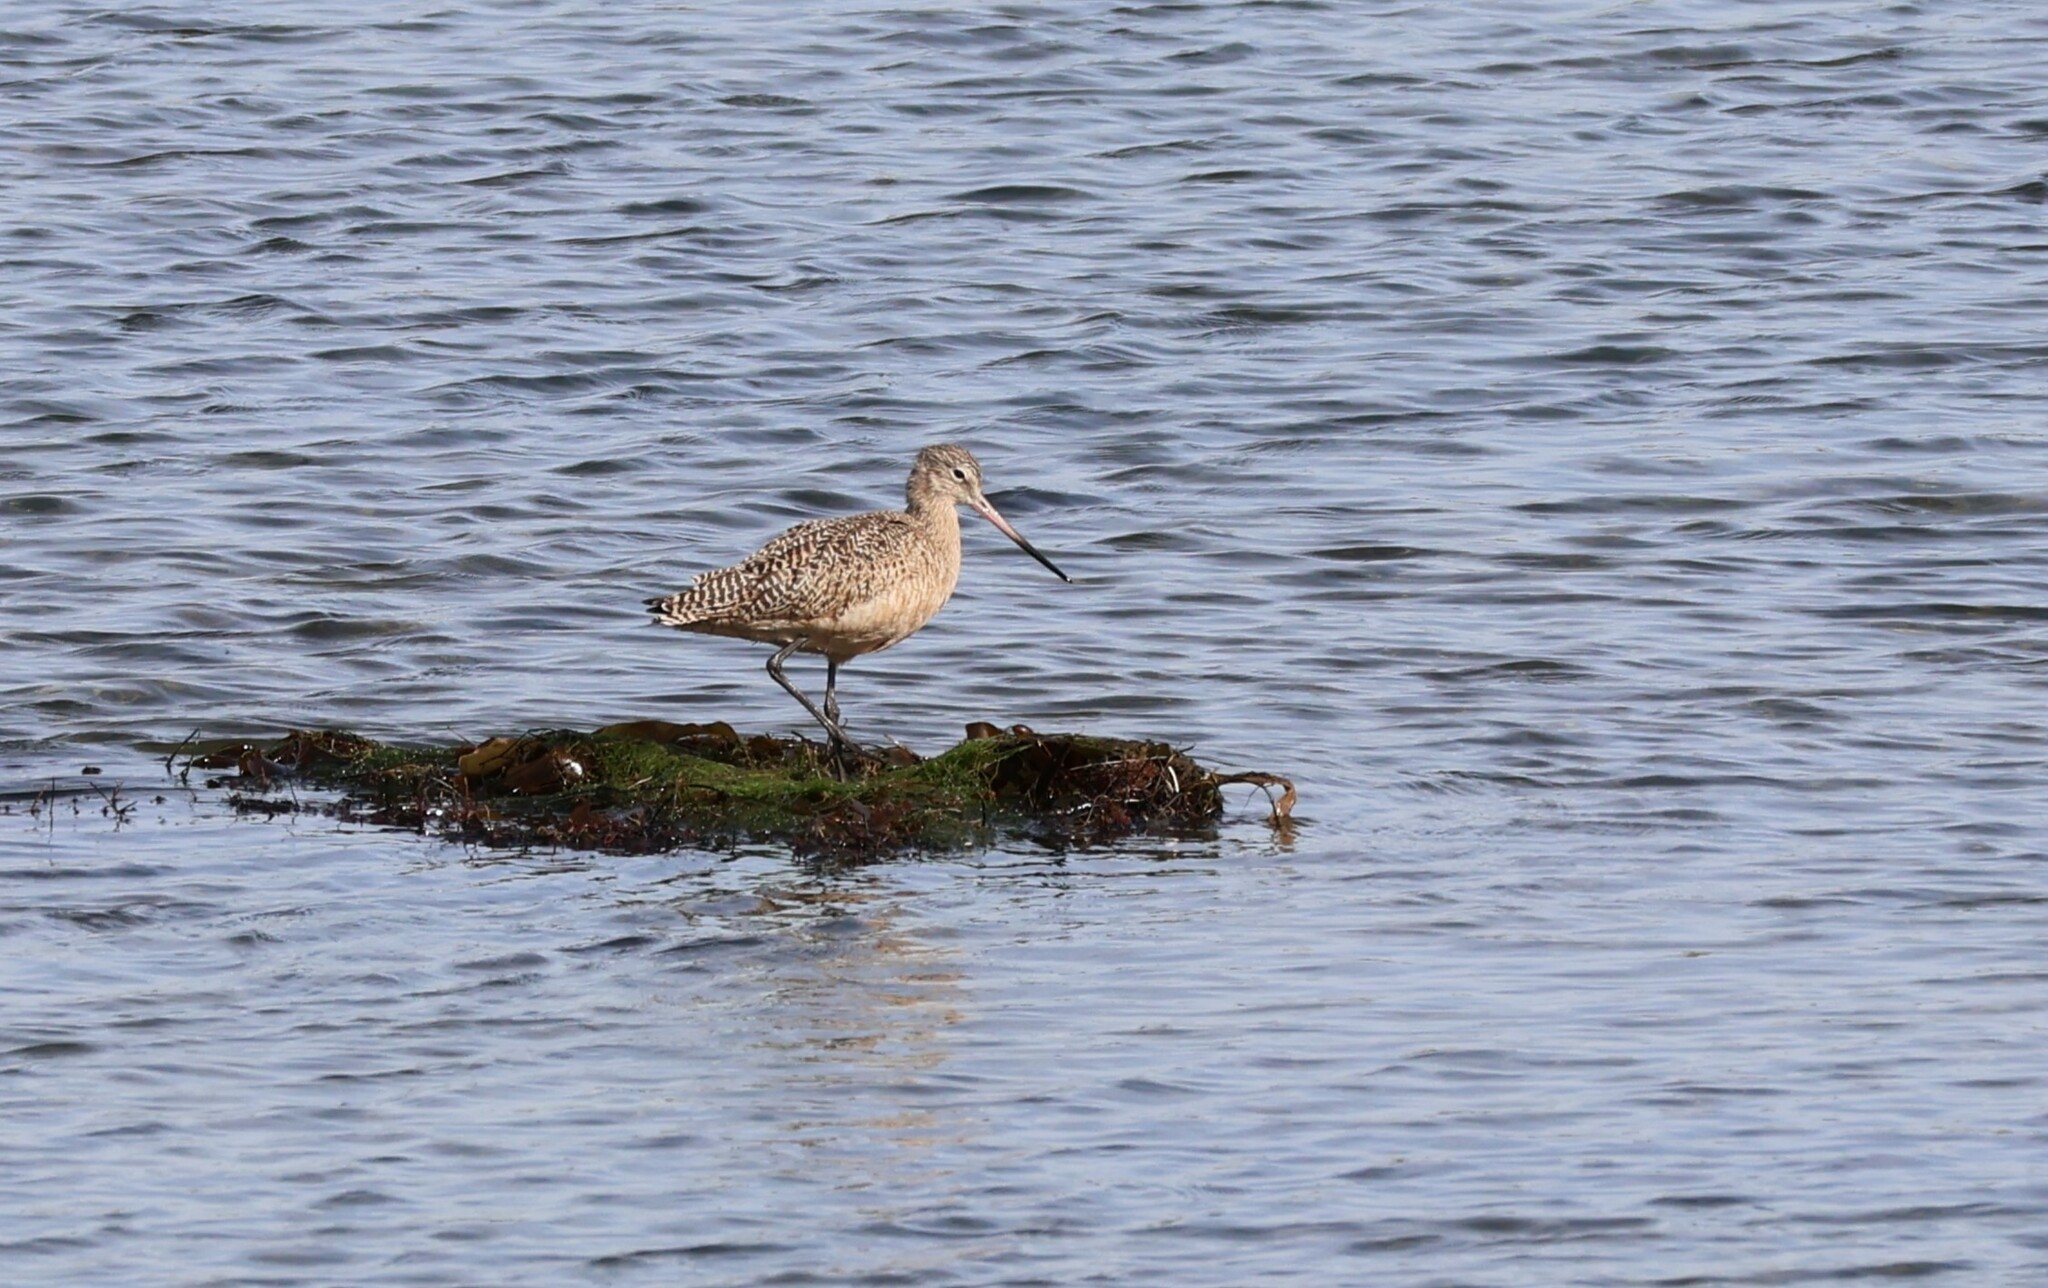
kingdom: Animalia
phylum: Chordata
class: Aves
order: Charadriiformes
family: Scolopacidae
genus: Limosa
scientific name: Limosa fedoa
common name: Marbled godwit
